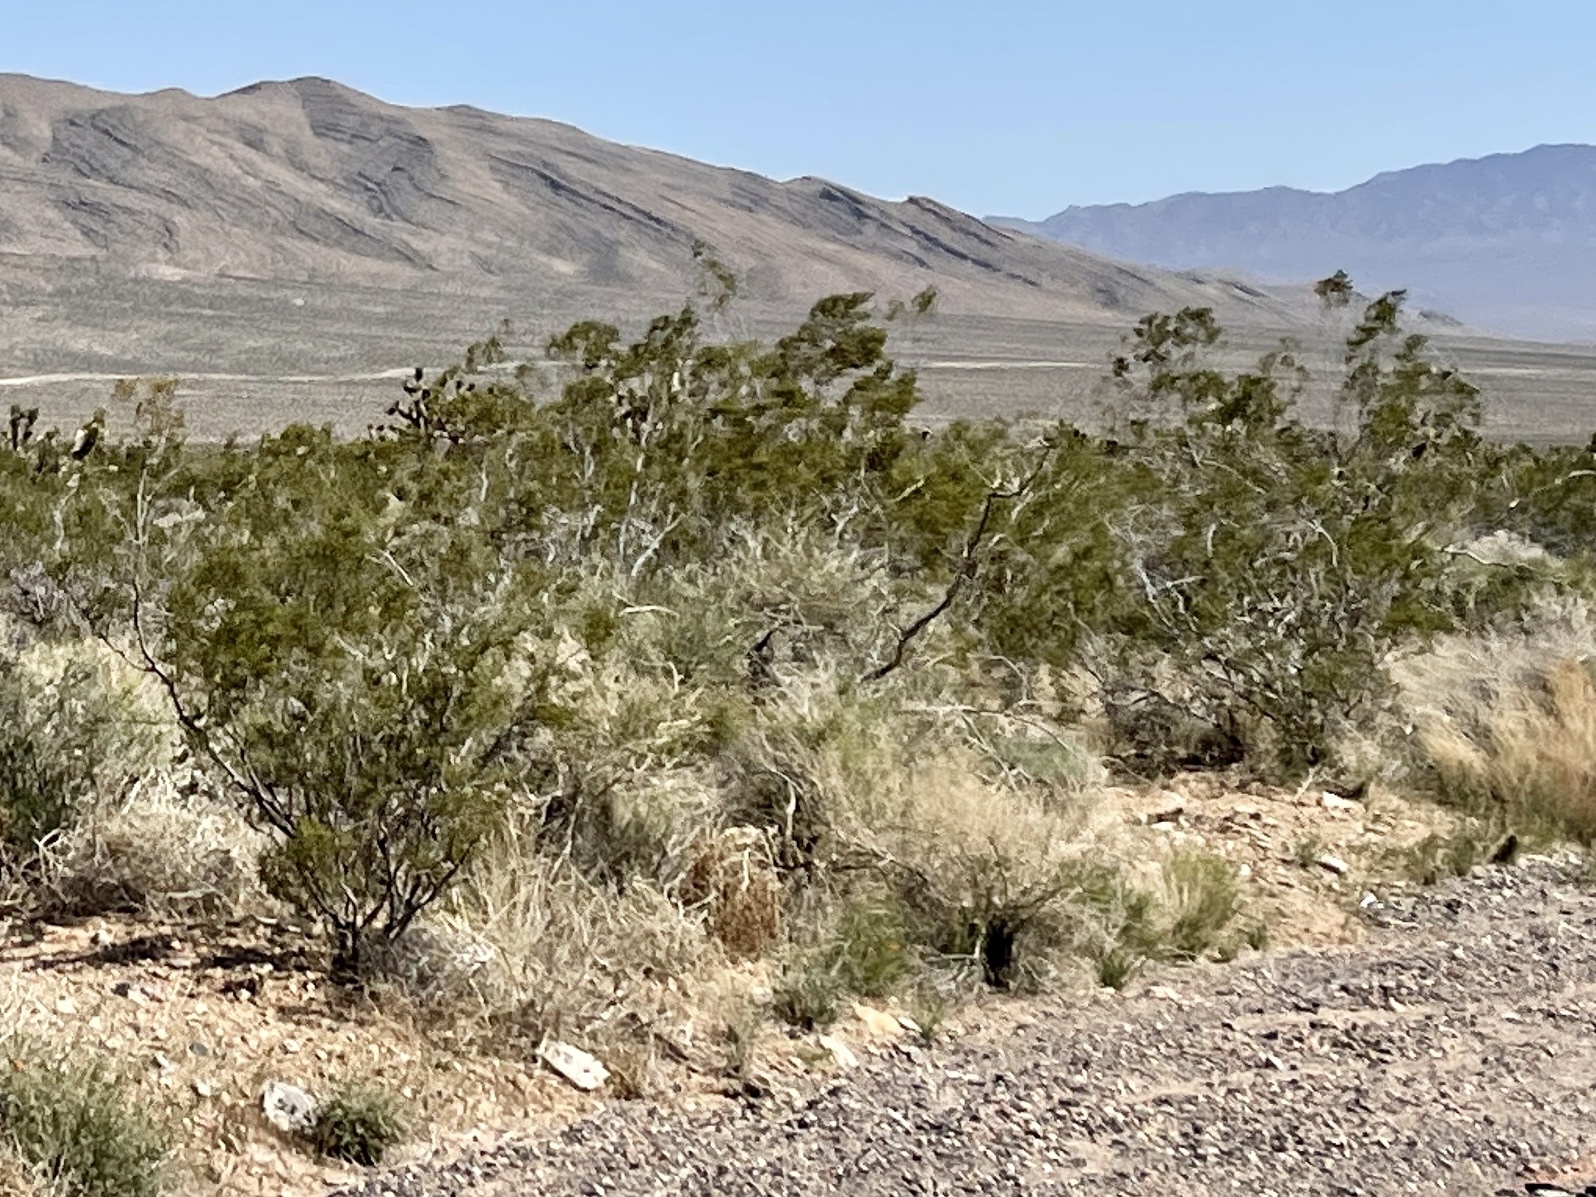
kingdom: Plantae
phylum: Tracheophyta
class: Magnoliopsida
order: Zygophyllales
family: Zygophyllaceae
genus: Larrea
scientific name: Larrea tridentata
